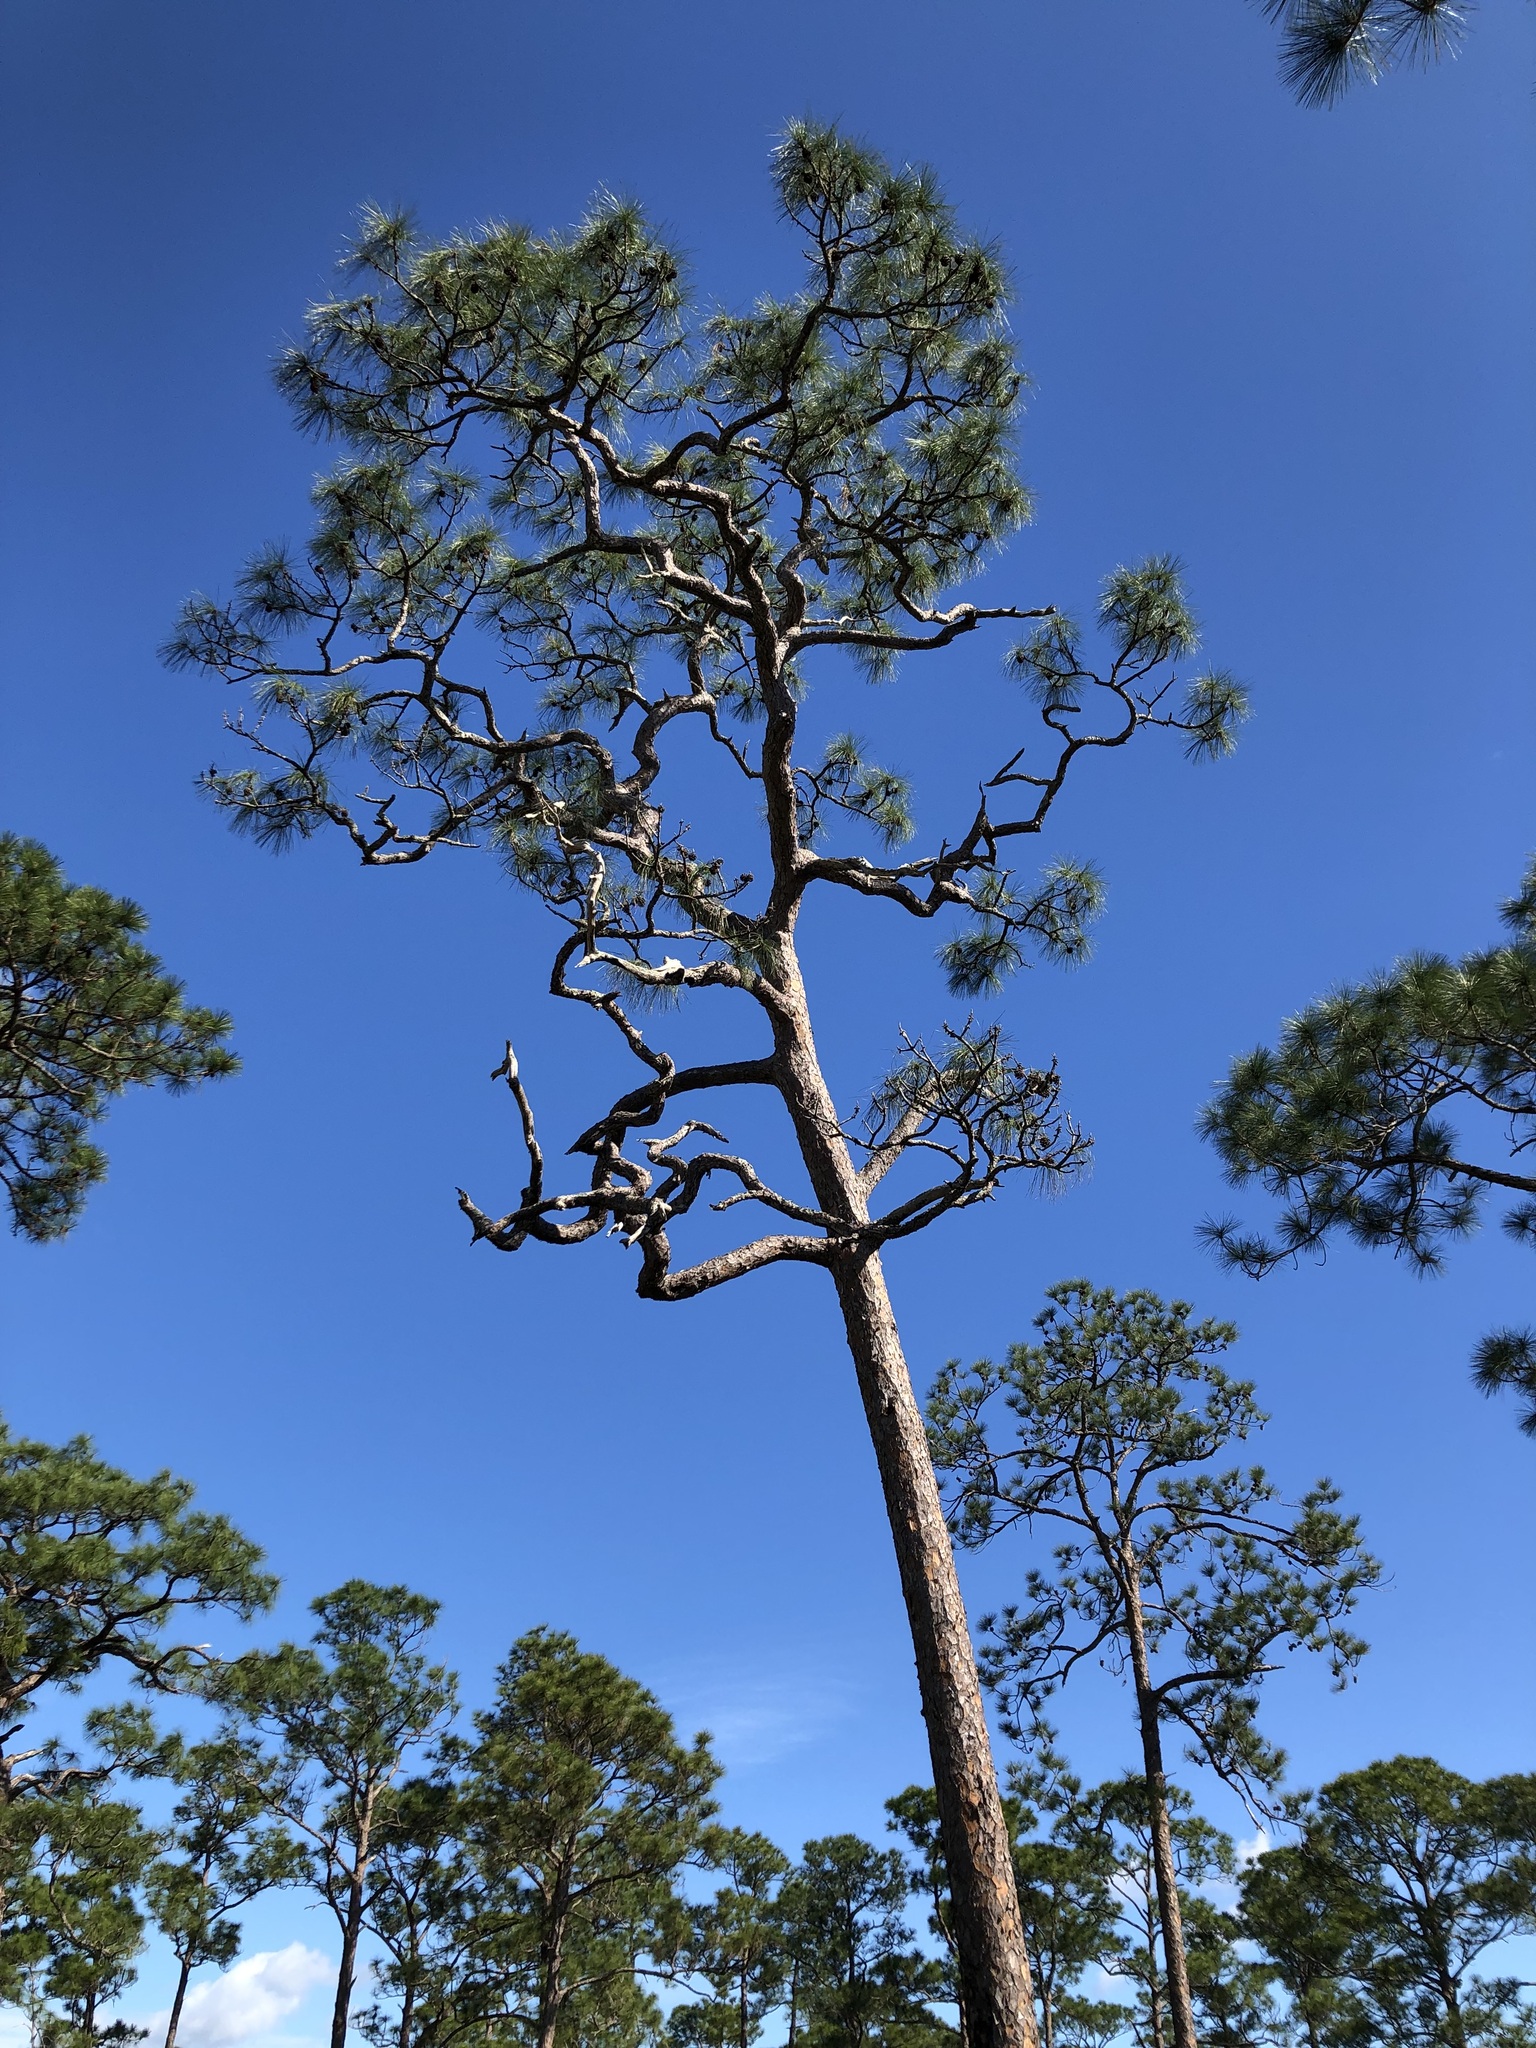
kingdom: Plantae
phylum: Tracheophyta
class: Pinopsida
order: Pinales
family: Pinaceae
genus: Pinus
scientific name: Pinus elliottii
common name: Slash pine
